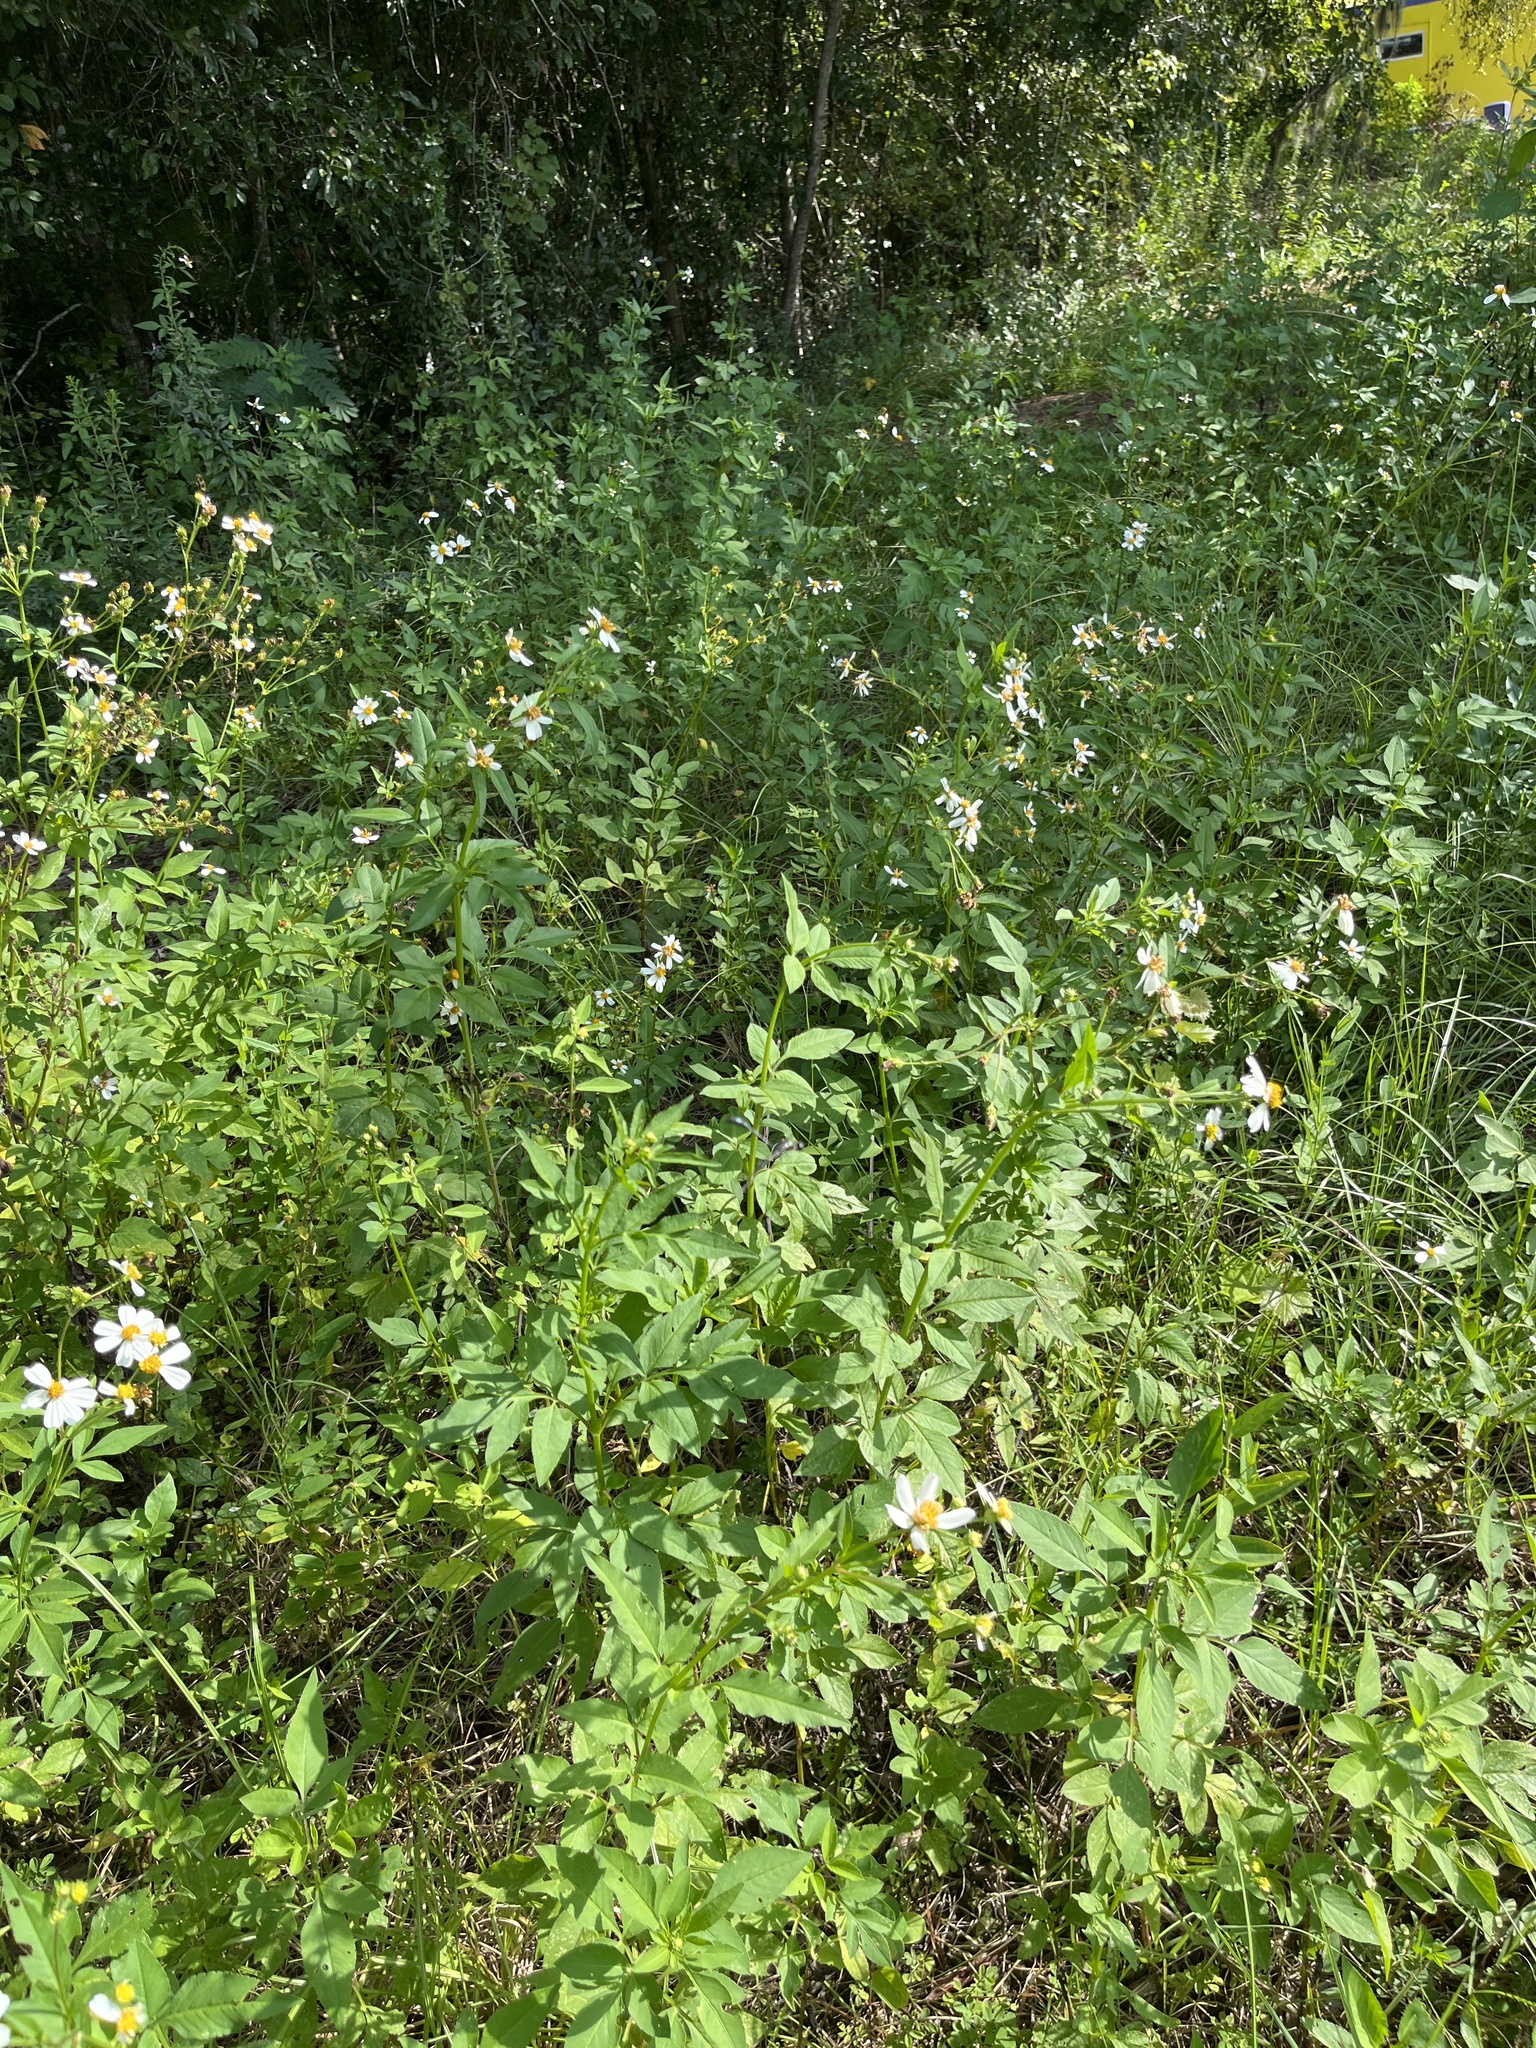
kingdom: Plantae
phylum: Tracheophyta
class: Magnoliopsida
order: Asterales
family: Asteraceae
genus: Bidens
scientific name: Bidens alba
